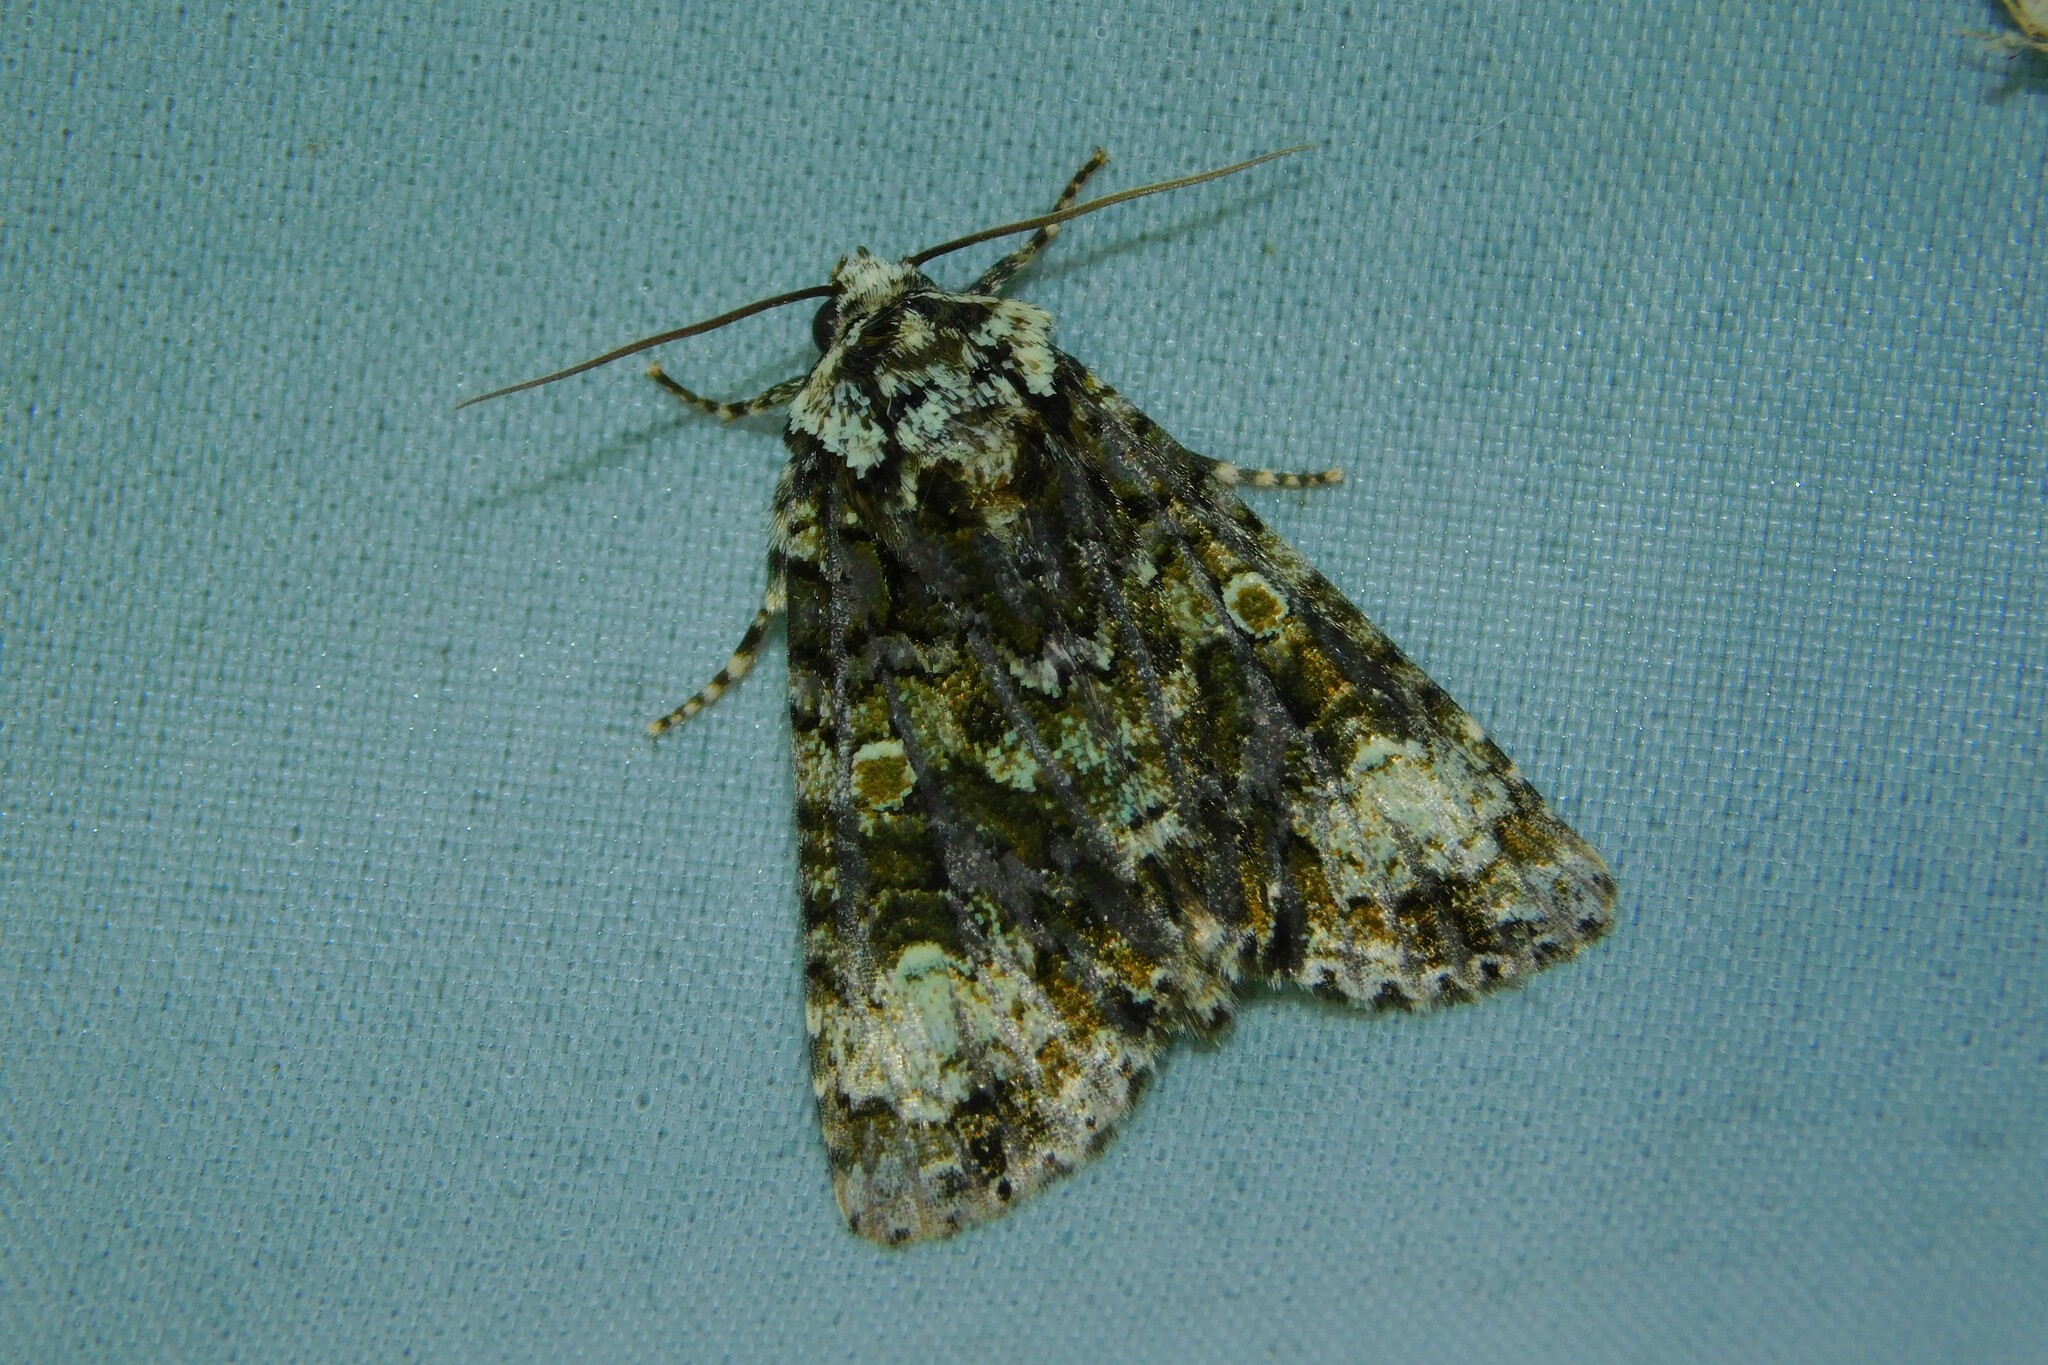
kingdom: Animalia
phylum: Arthropoda
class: Insecta
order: Lepidoptera
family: Noctuidae
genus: Craniophora
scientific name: Craniophora ligustri
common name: Coronet
